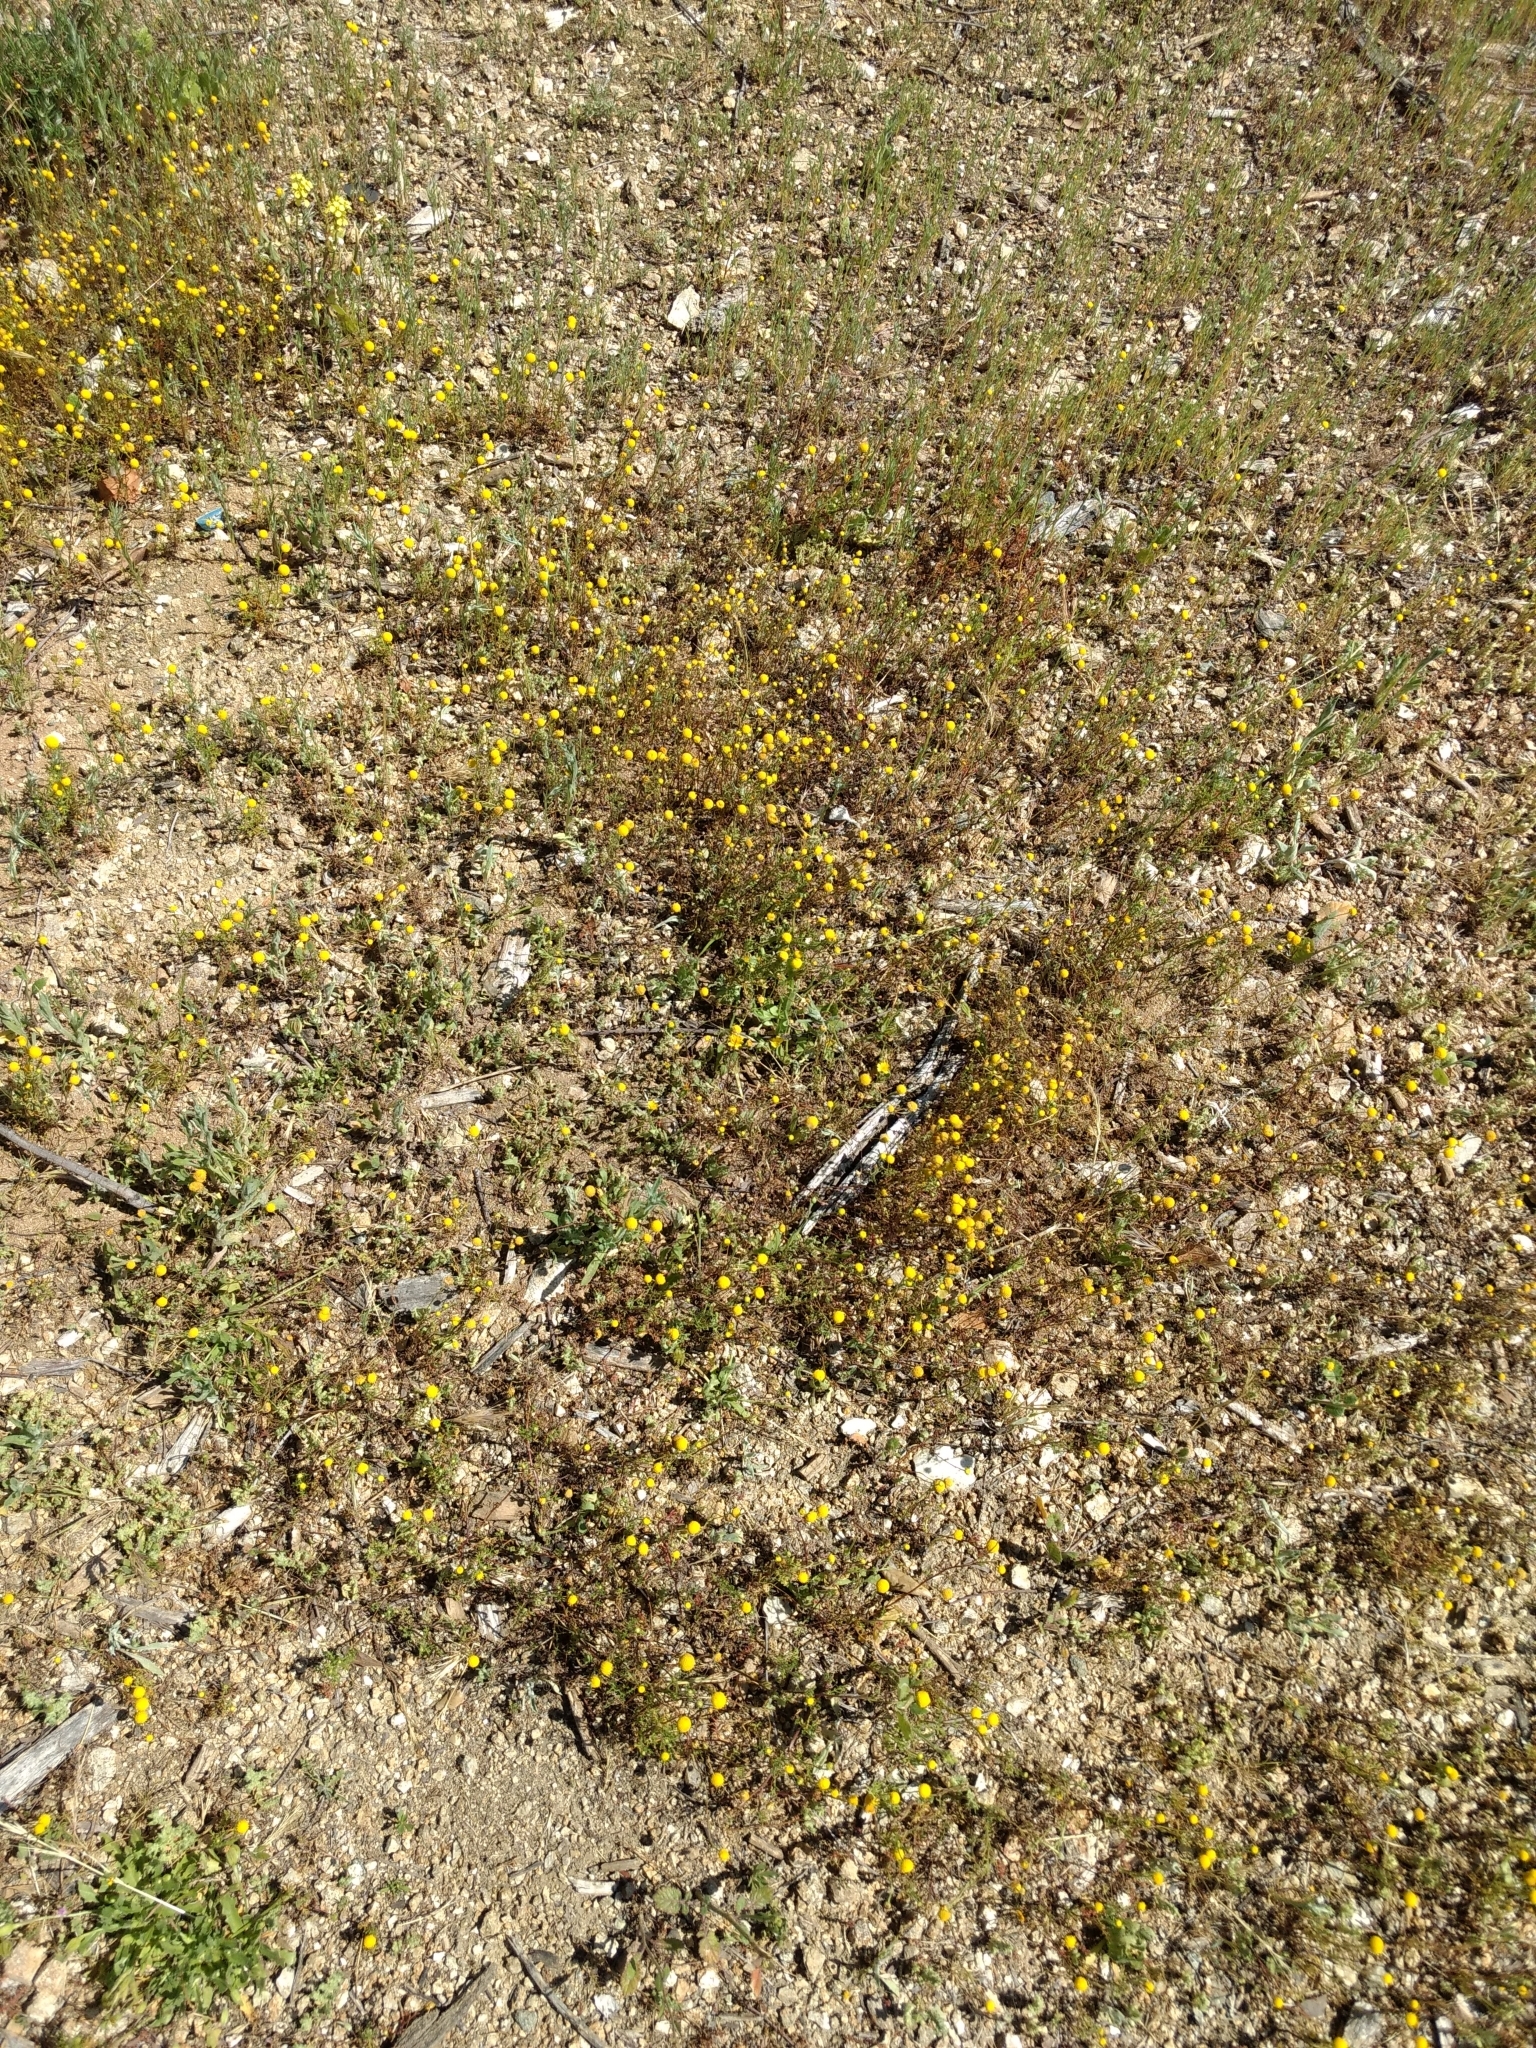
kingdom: Plantae
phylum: Tracheophyta
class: Magnoliopsida
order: Asterales
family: Asteraceae
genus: Oncosiphon
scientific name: Oncosiphon pilulifer
